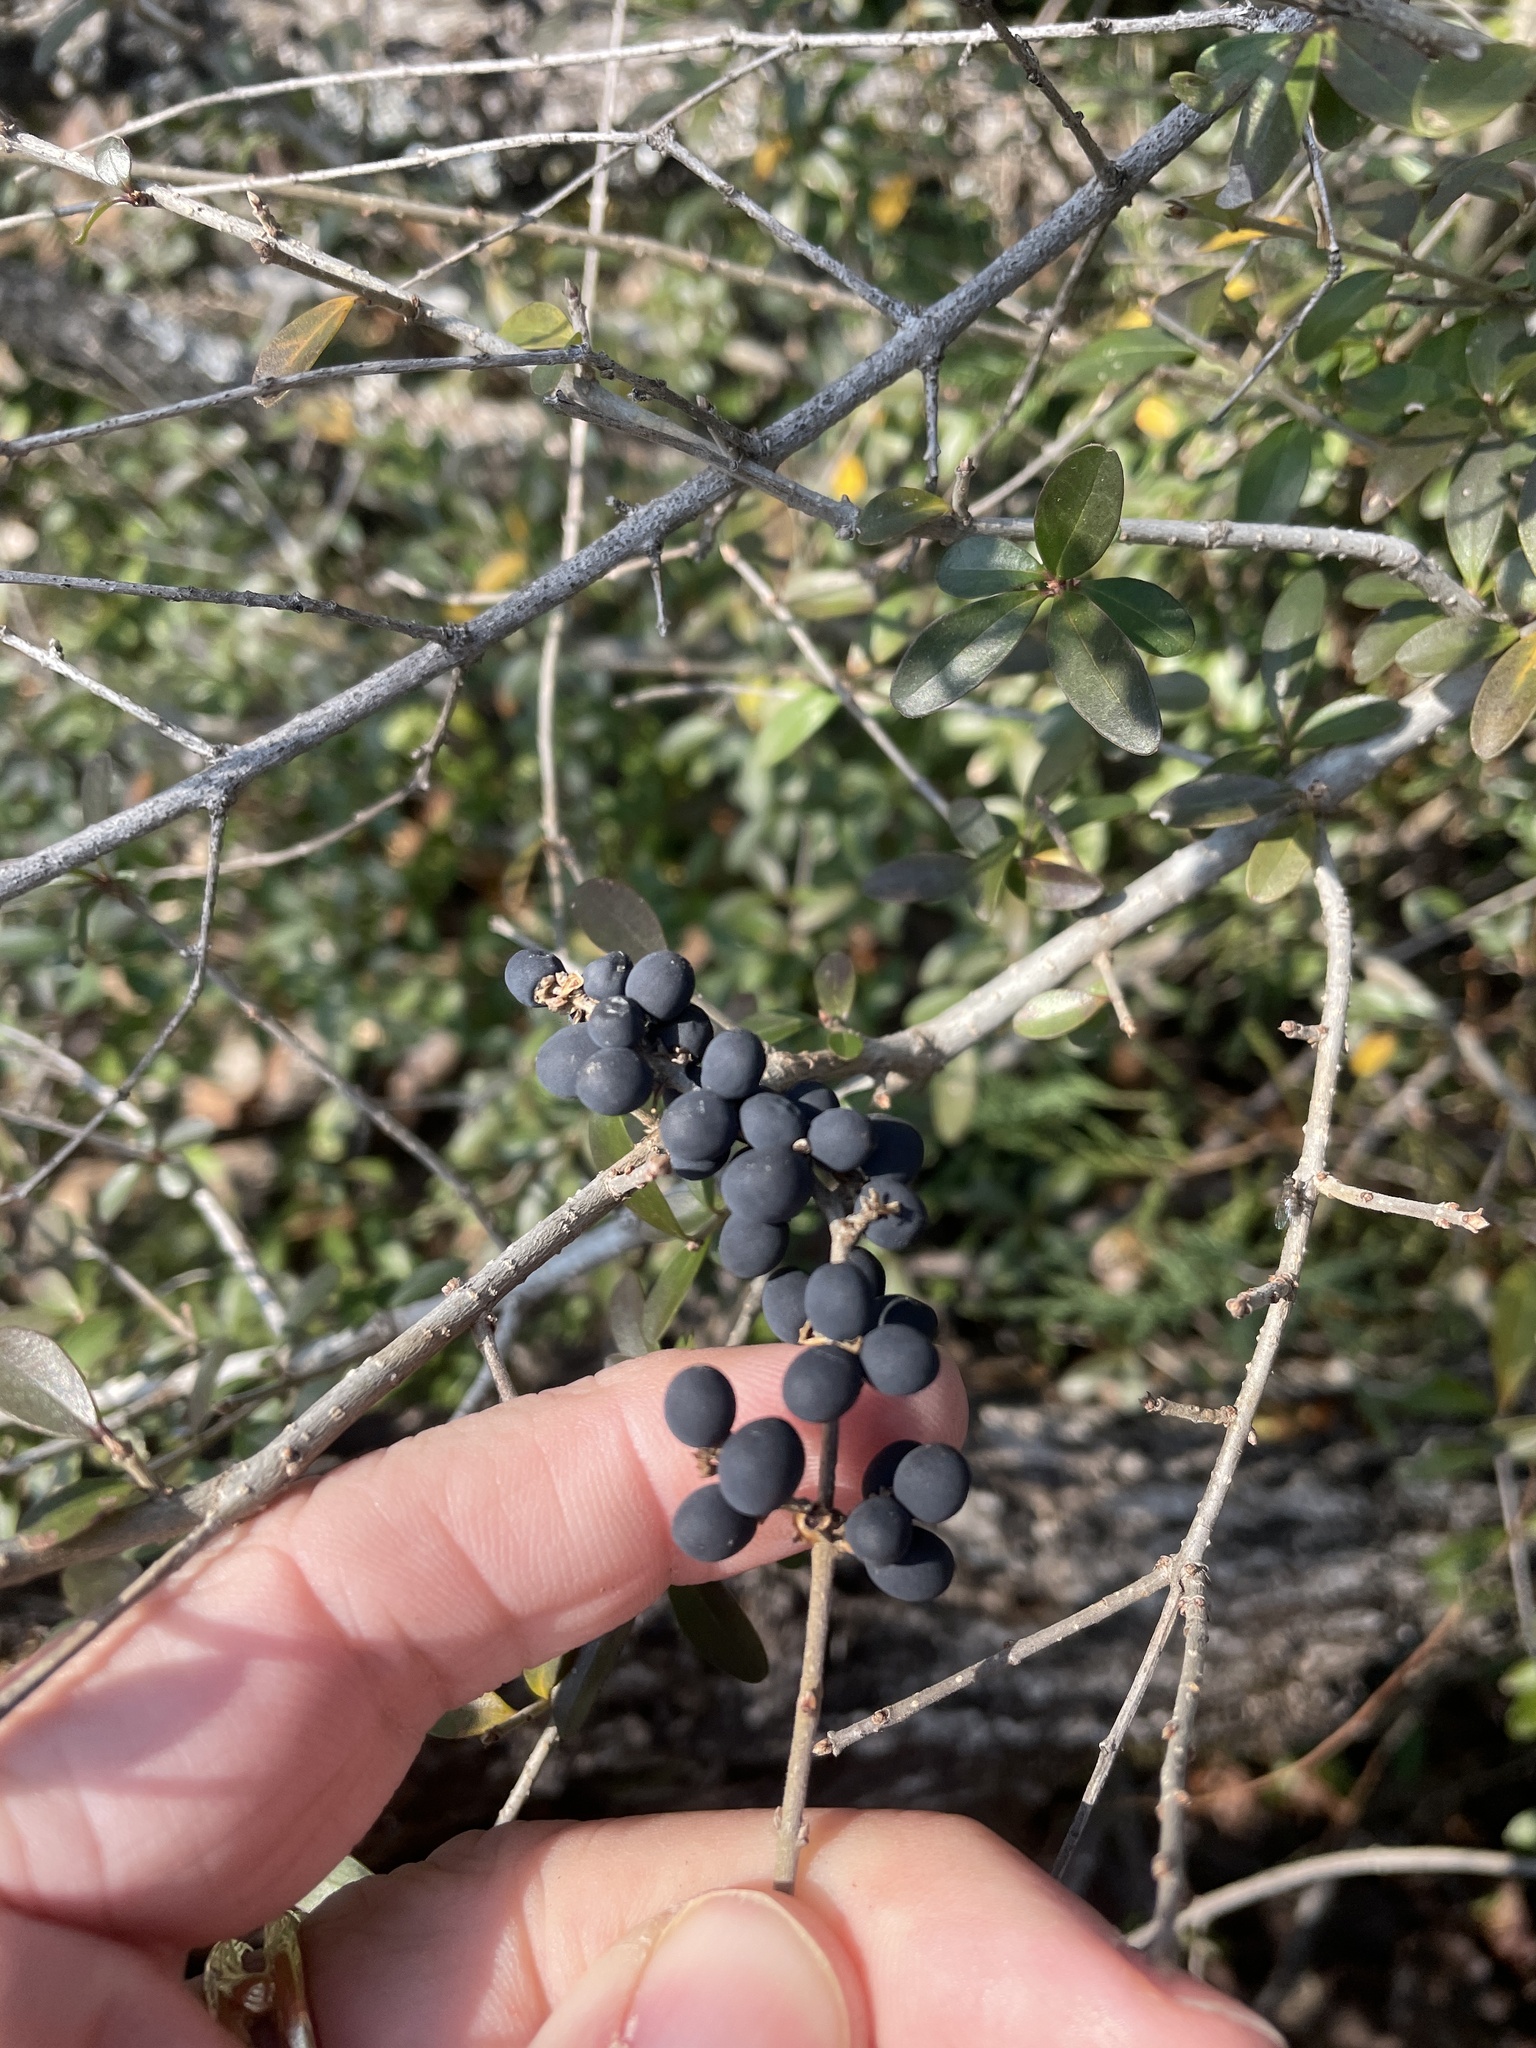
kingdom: Plantae
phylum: Tracheophyta
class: Magnoliopsida
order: Lamiales
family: Oleaceae
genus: Ligustrum
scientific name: Ligustrum quihoui
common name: Waxyleaf privet
